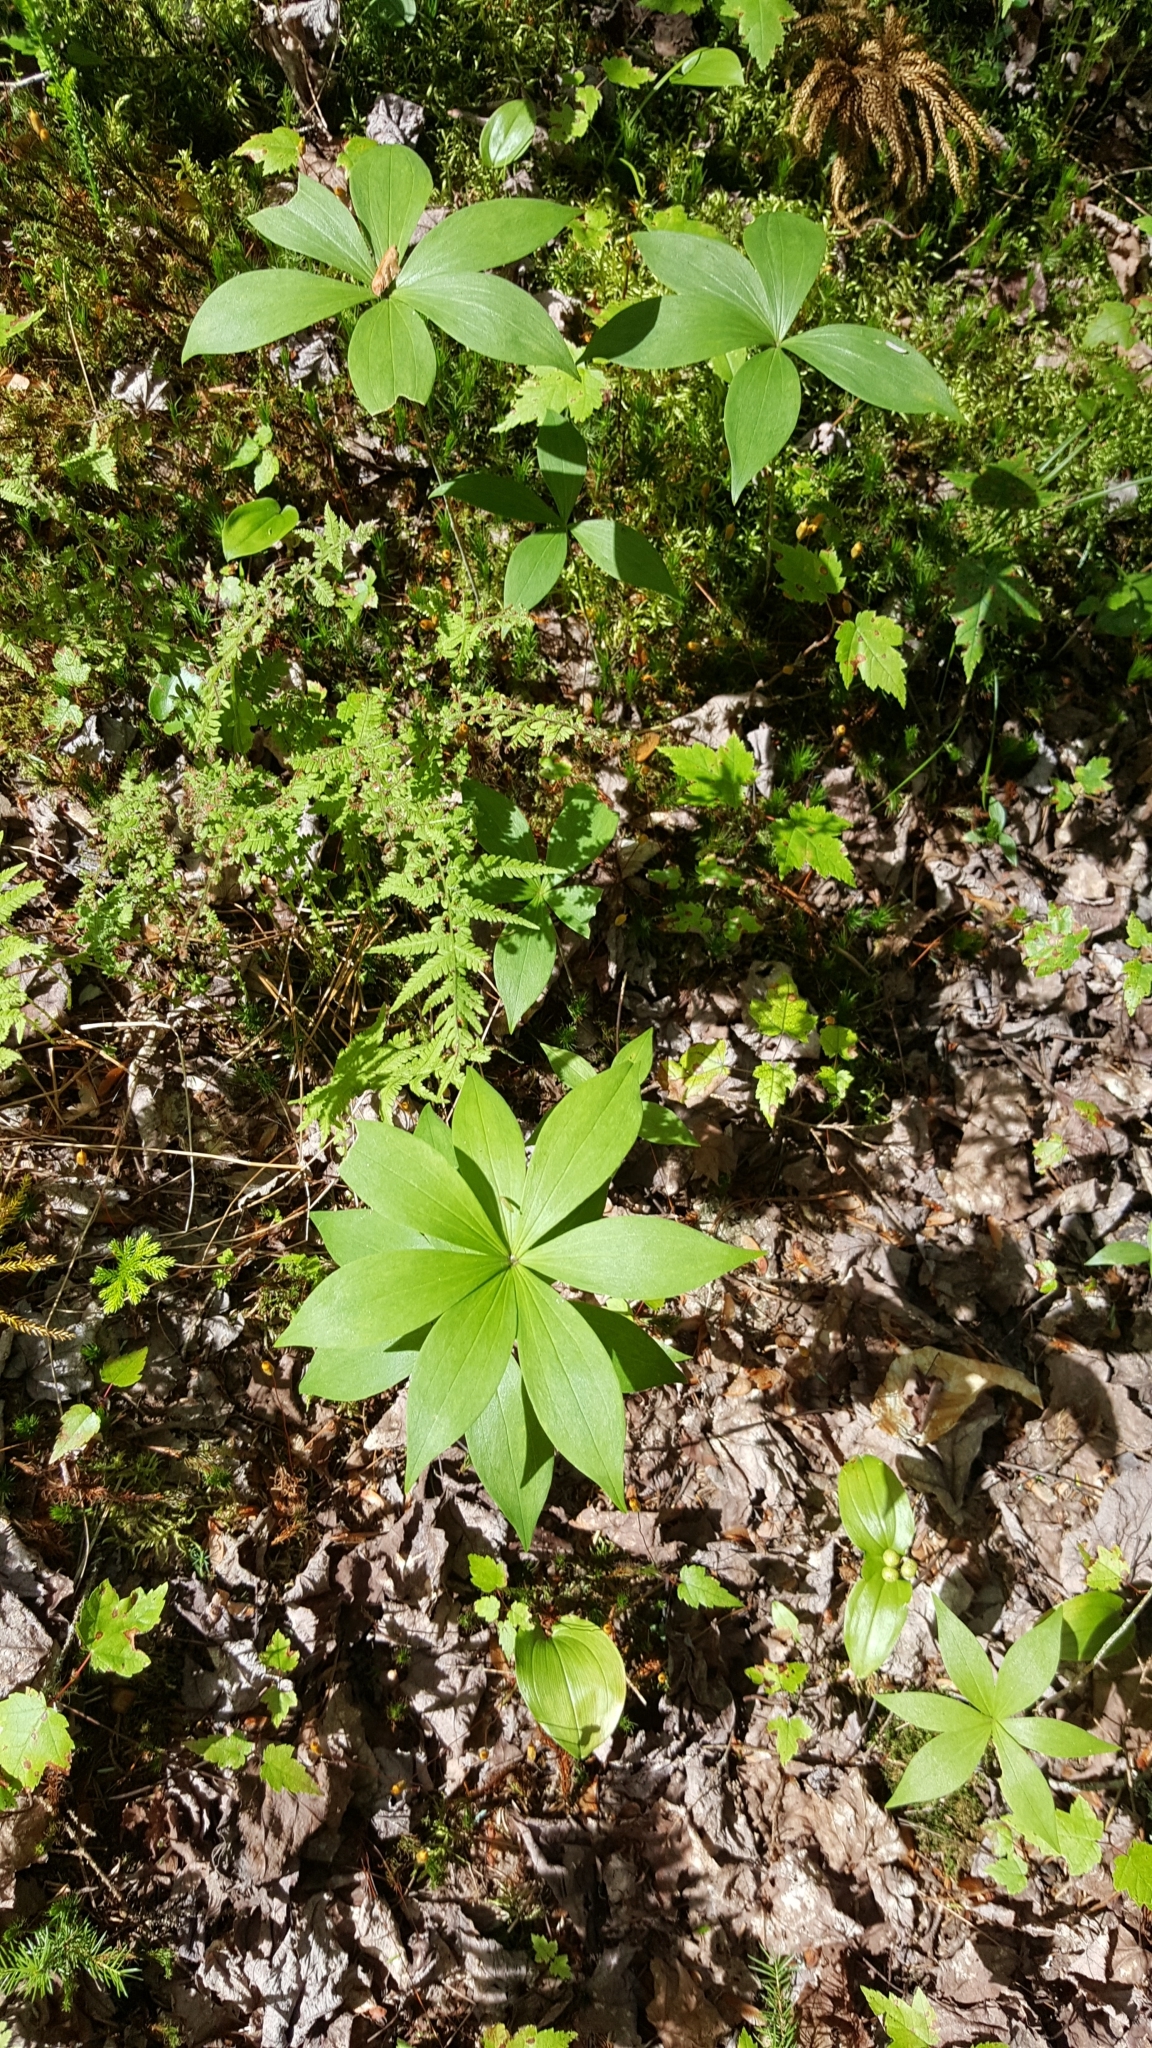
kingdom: Plantae
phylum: Tracheophyta
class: Liliopsida
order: Liliales
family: Liliaceae
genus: Medeola
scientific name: Medeola virginiana
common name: Indian cucumber-root
